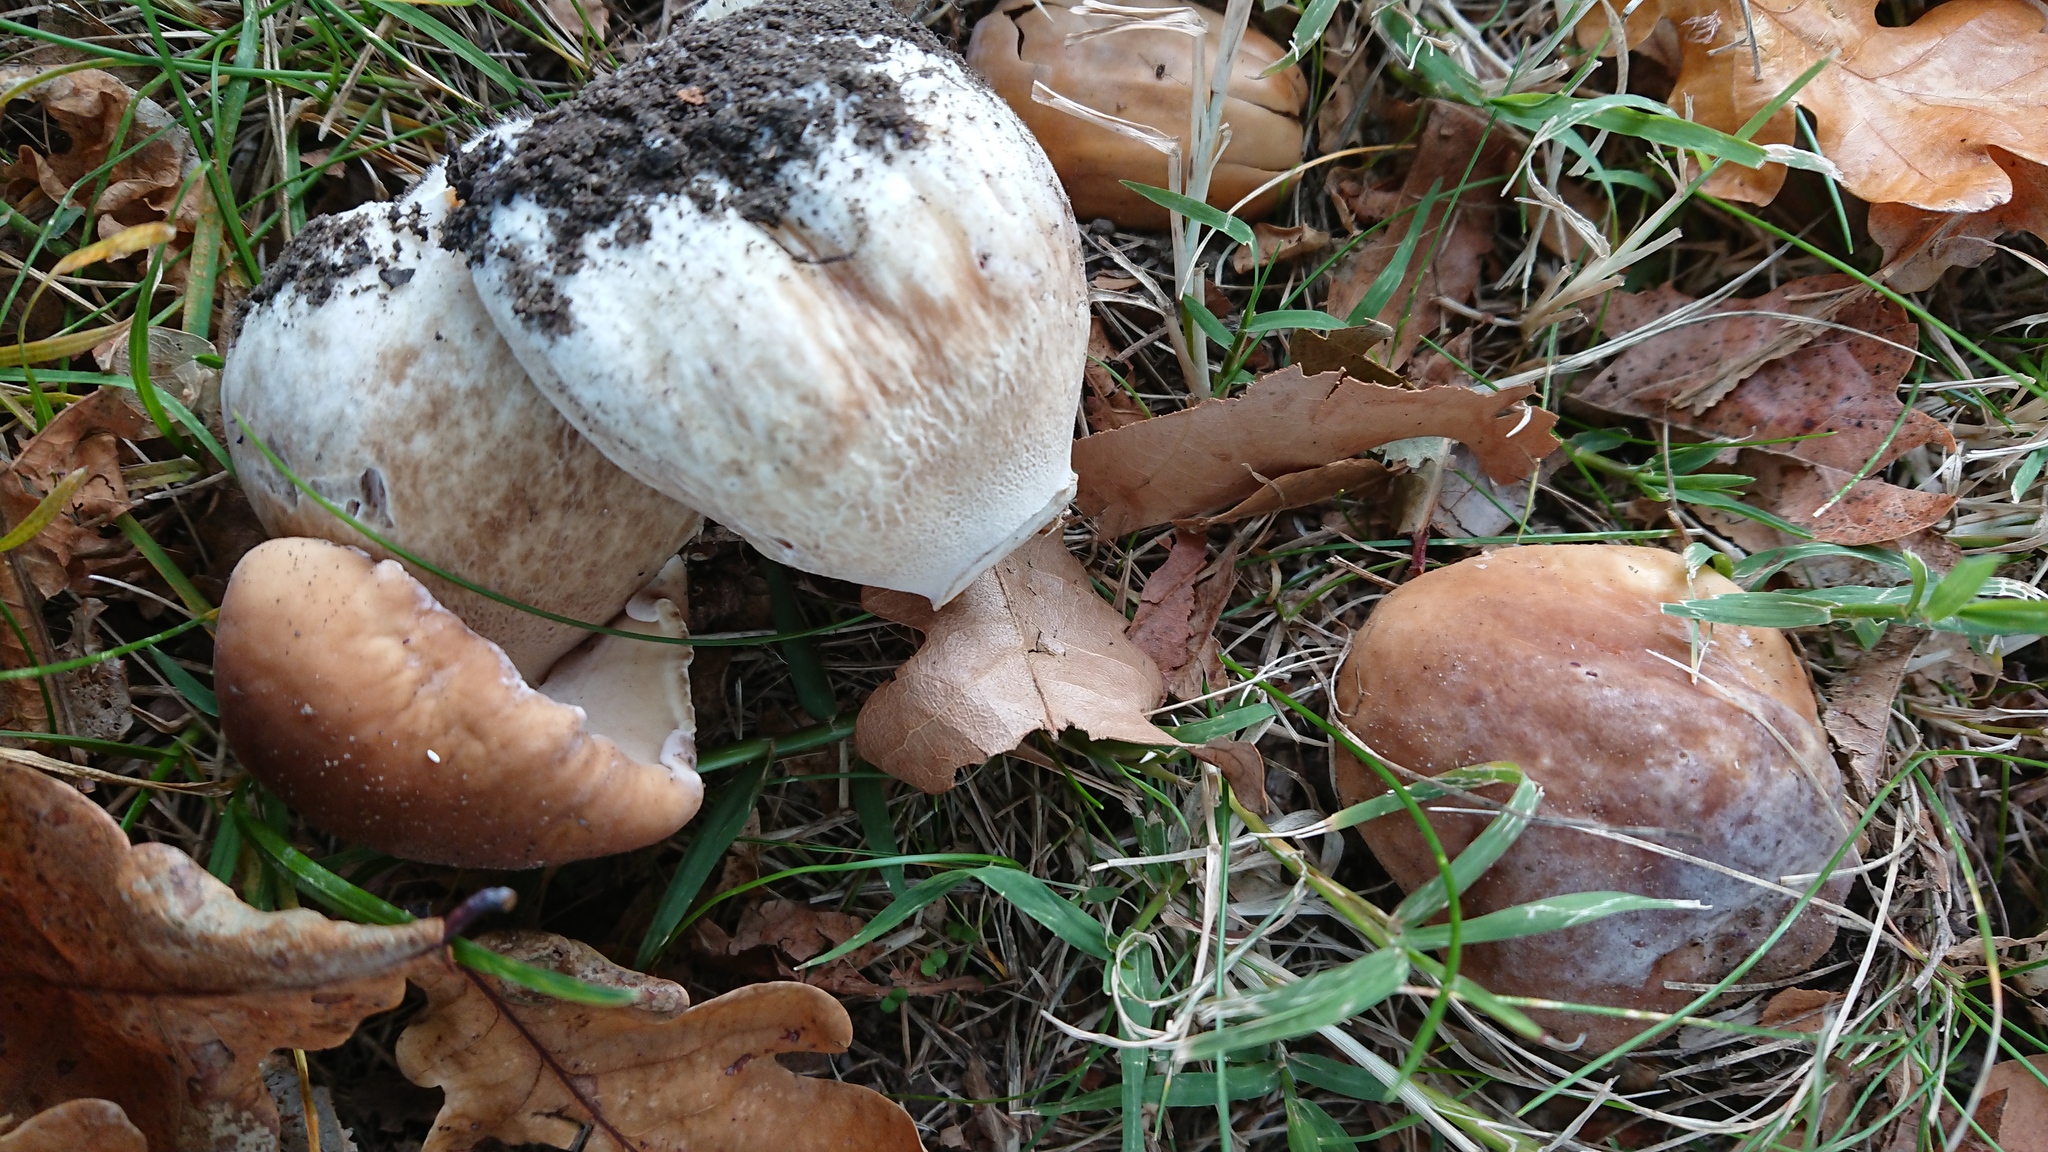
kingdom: Fungi
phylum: Basidiomycota
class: Agaricomycetes
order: Boletales
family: Boletaceae
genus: Boletus
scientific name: Boletus edulis
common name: Cep
